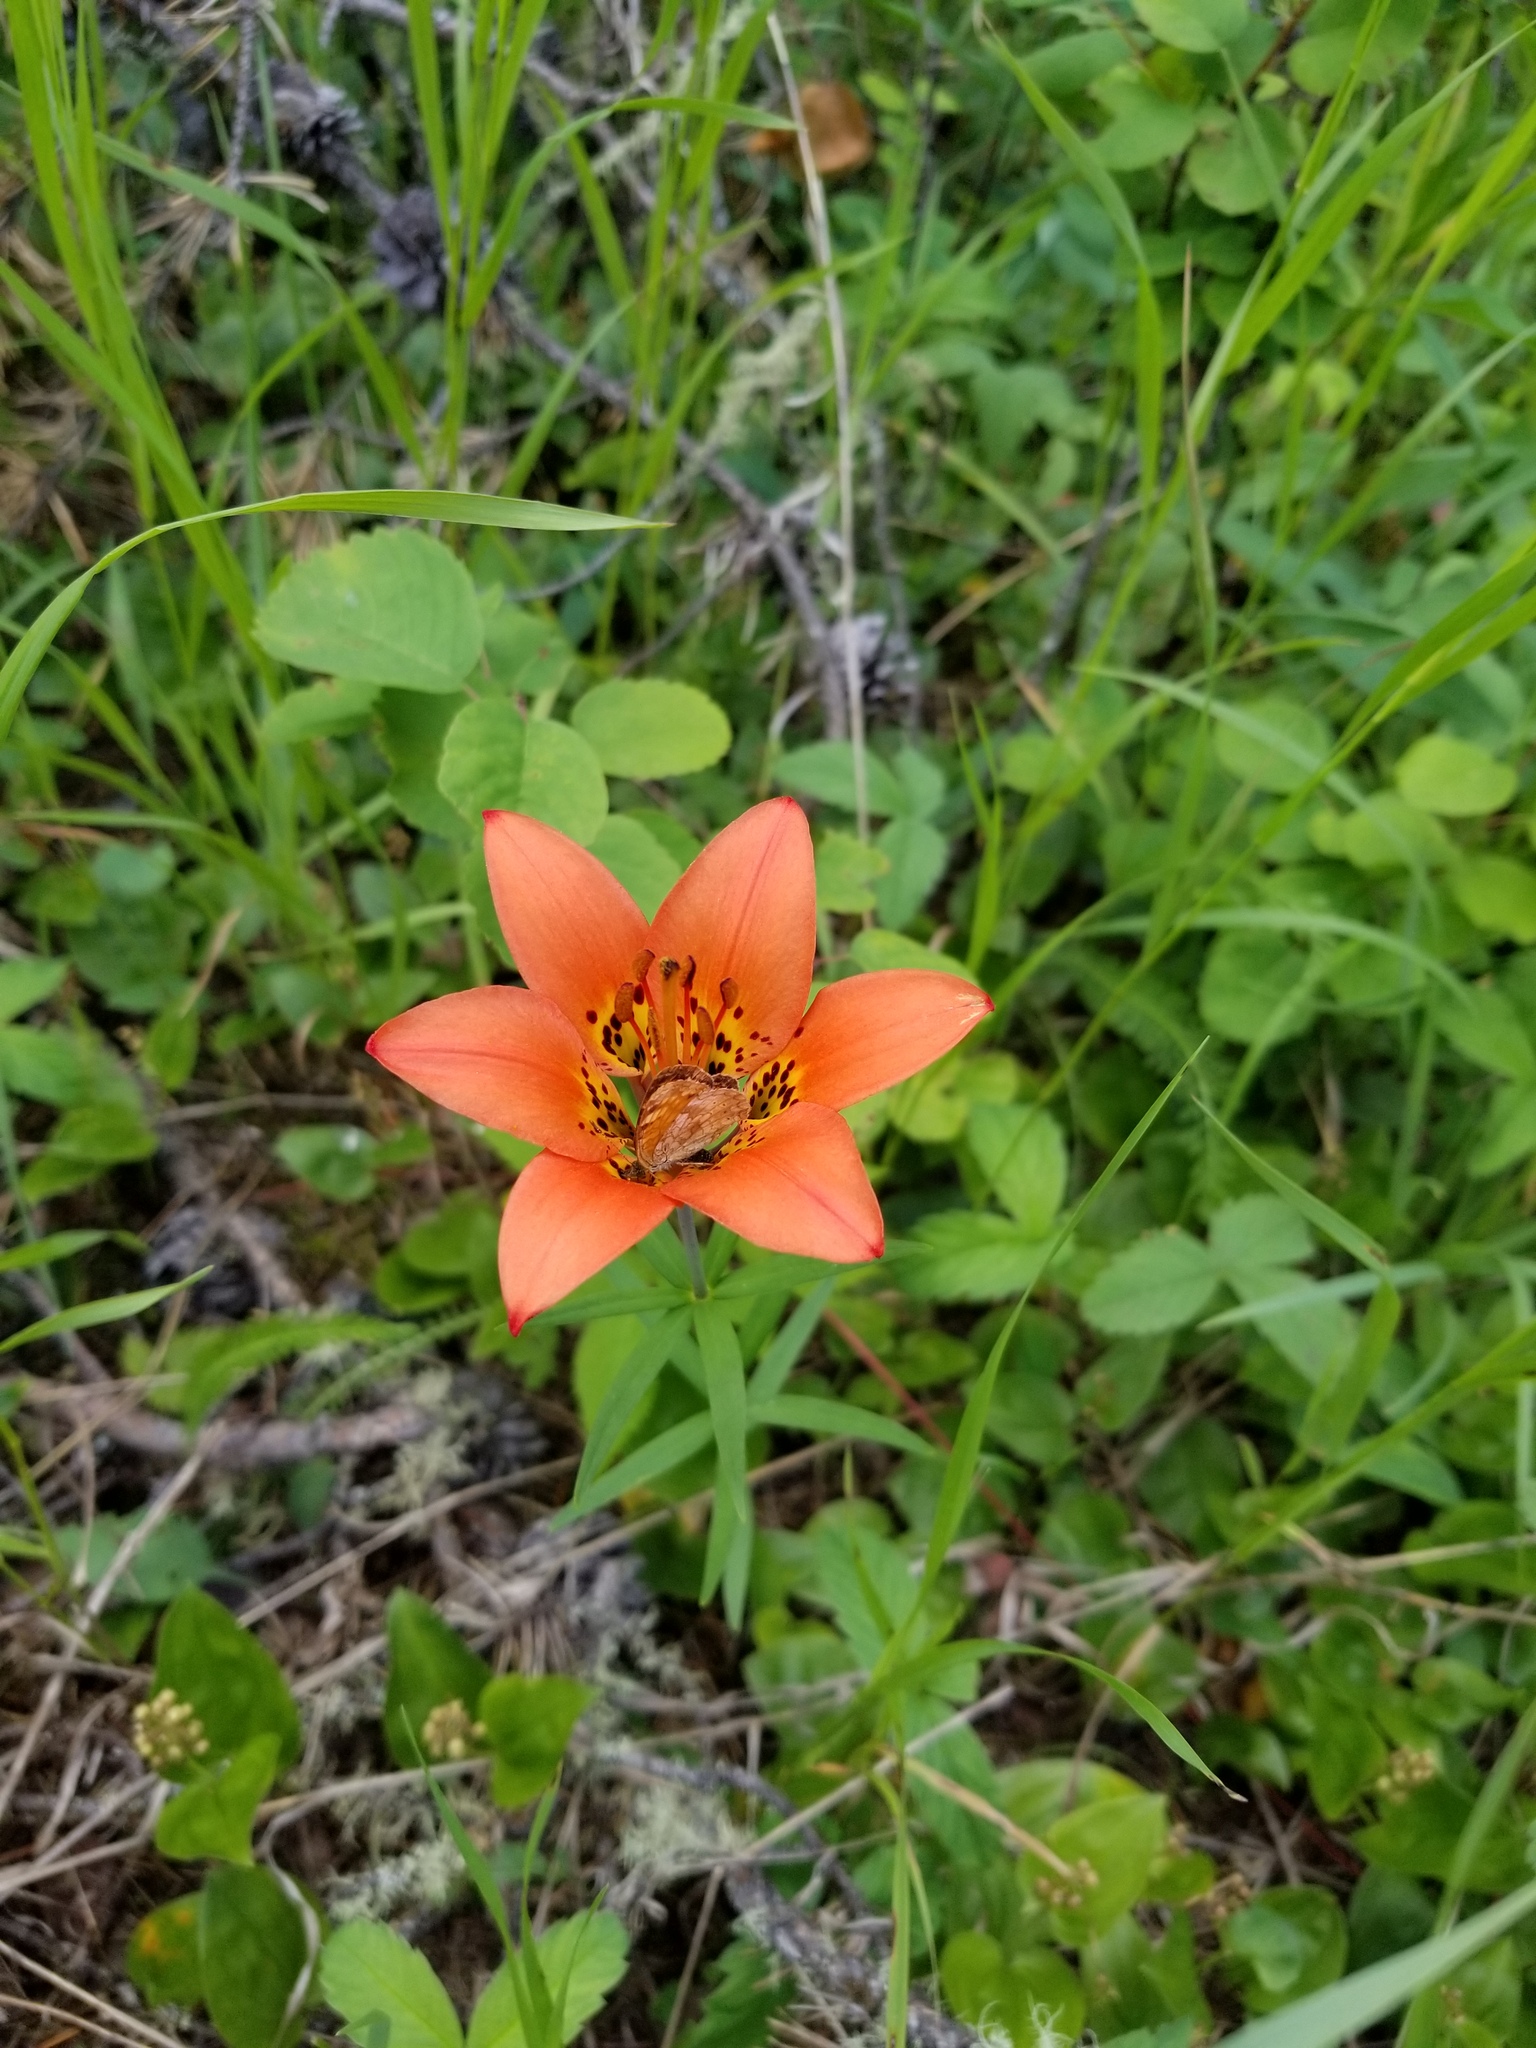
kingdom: Plantae
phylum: Tracheophyta
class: Liliopsida
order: Liliales
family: Liliaceae
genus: Lilium
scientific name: Lilium philadelphicum
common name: Red lily
